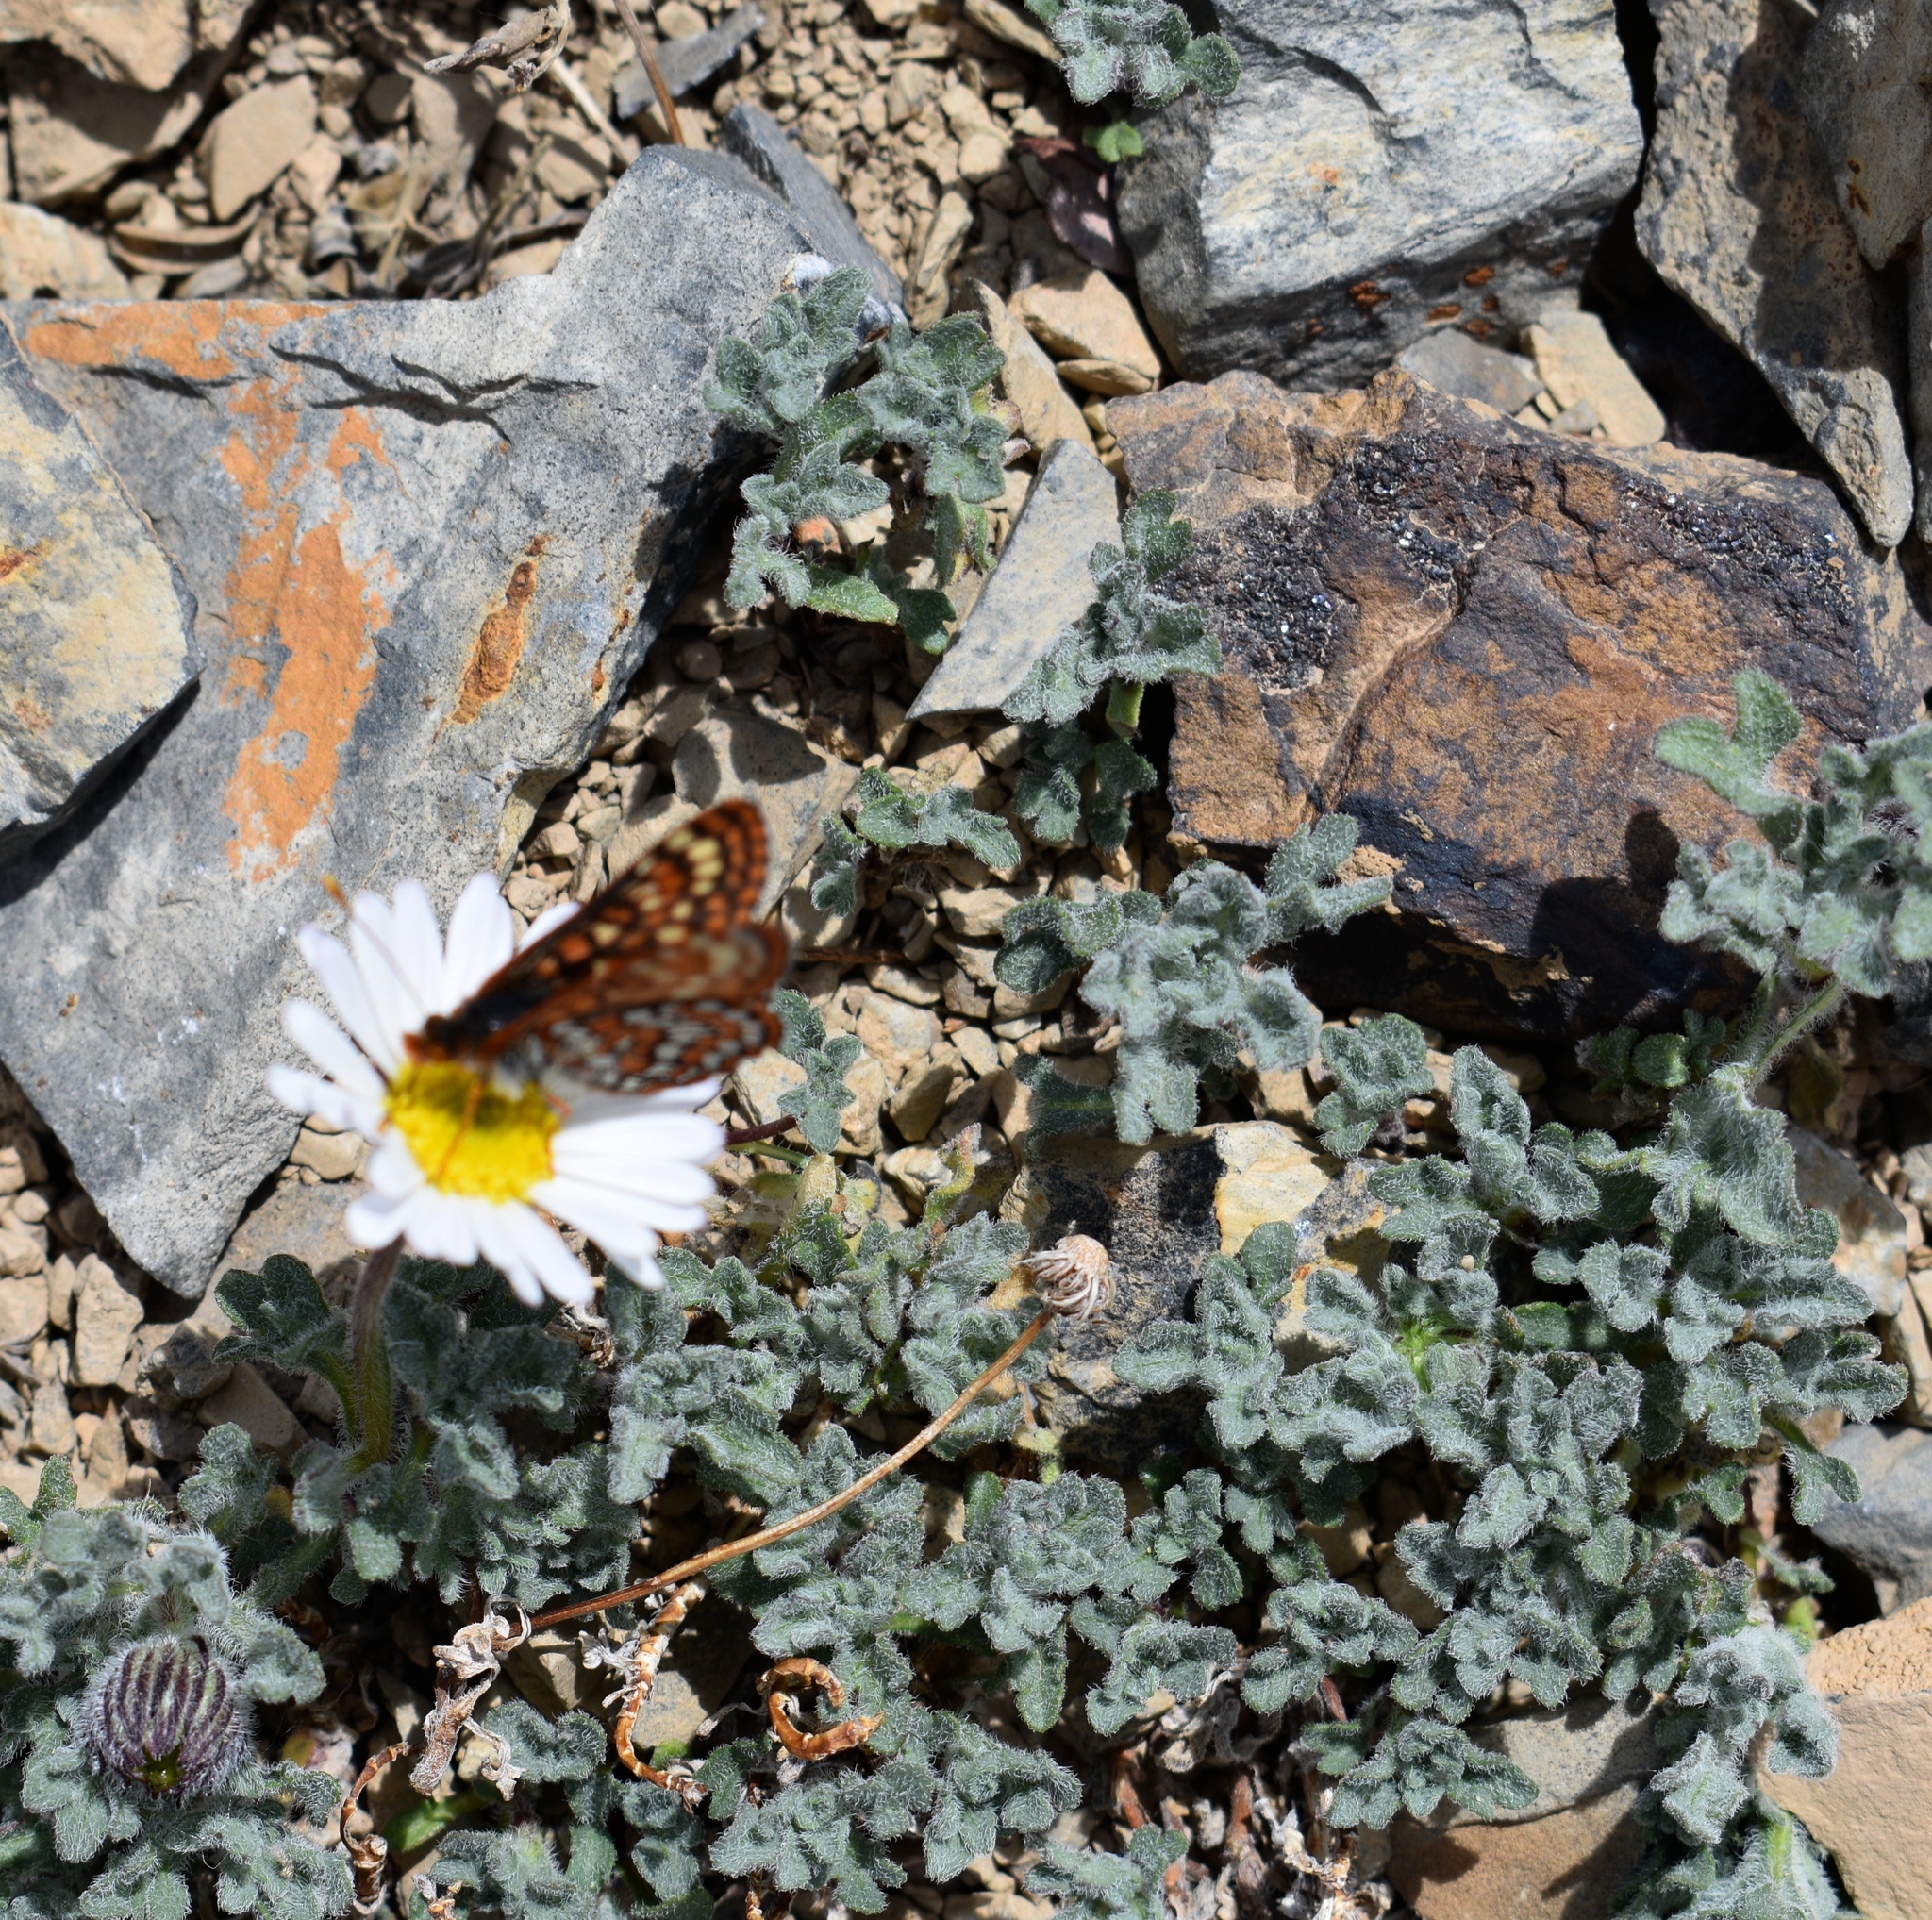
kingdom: Animalia
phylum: Arthropoda
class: Insecta
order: Lepidoptera
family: Nymphalidae
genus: Occidryas
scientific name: Occidryas anicia
